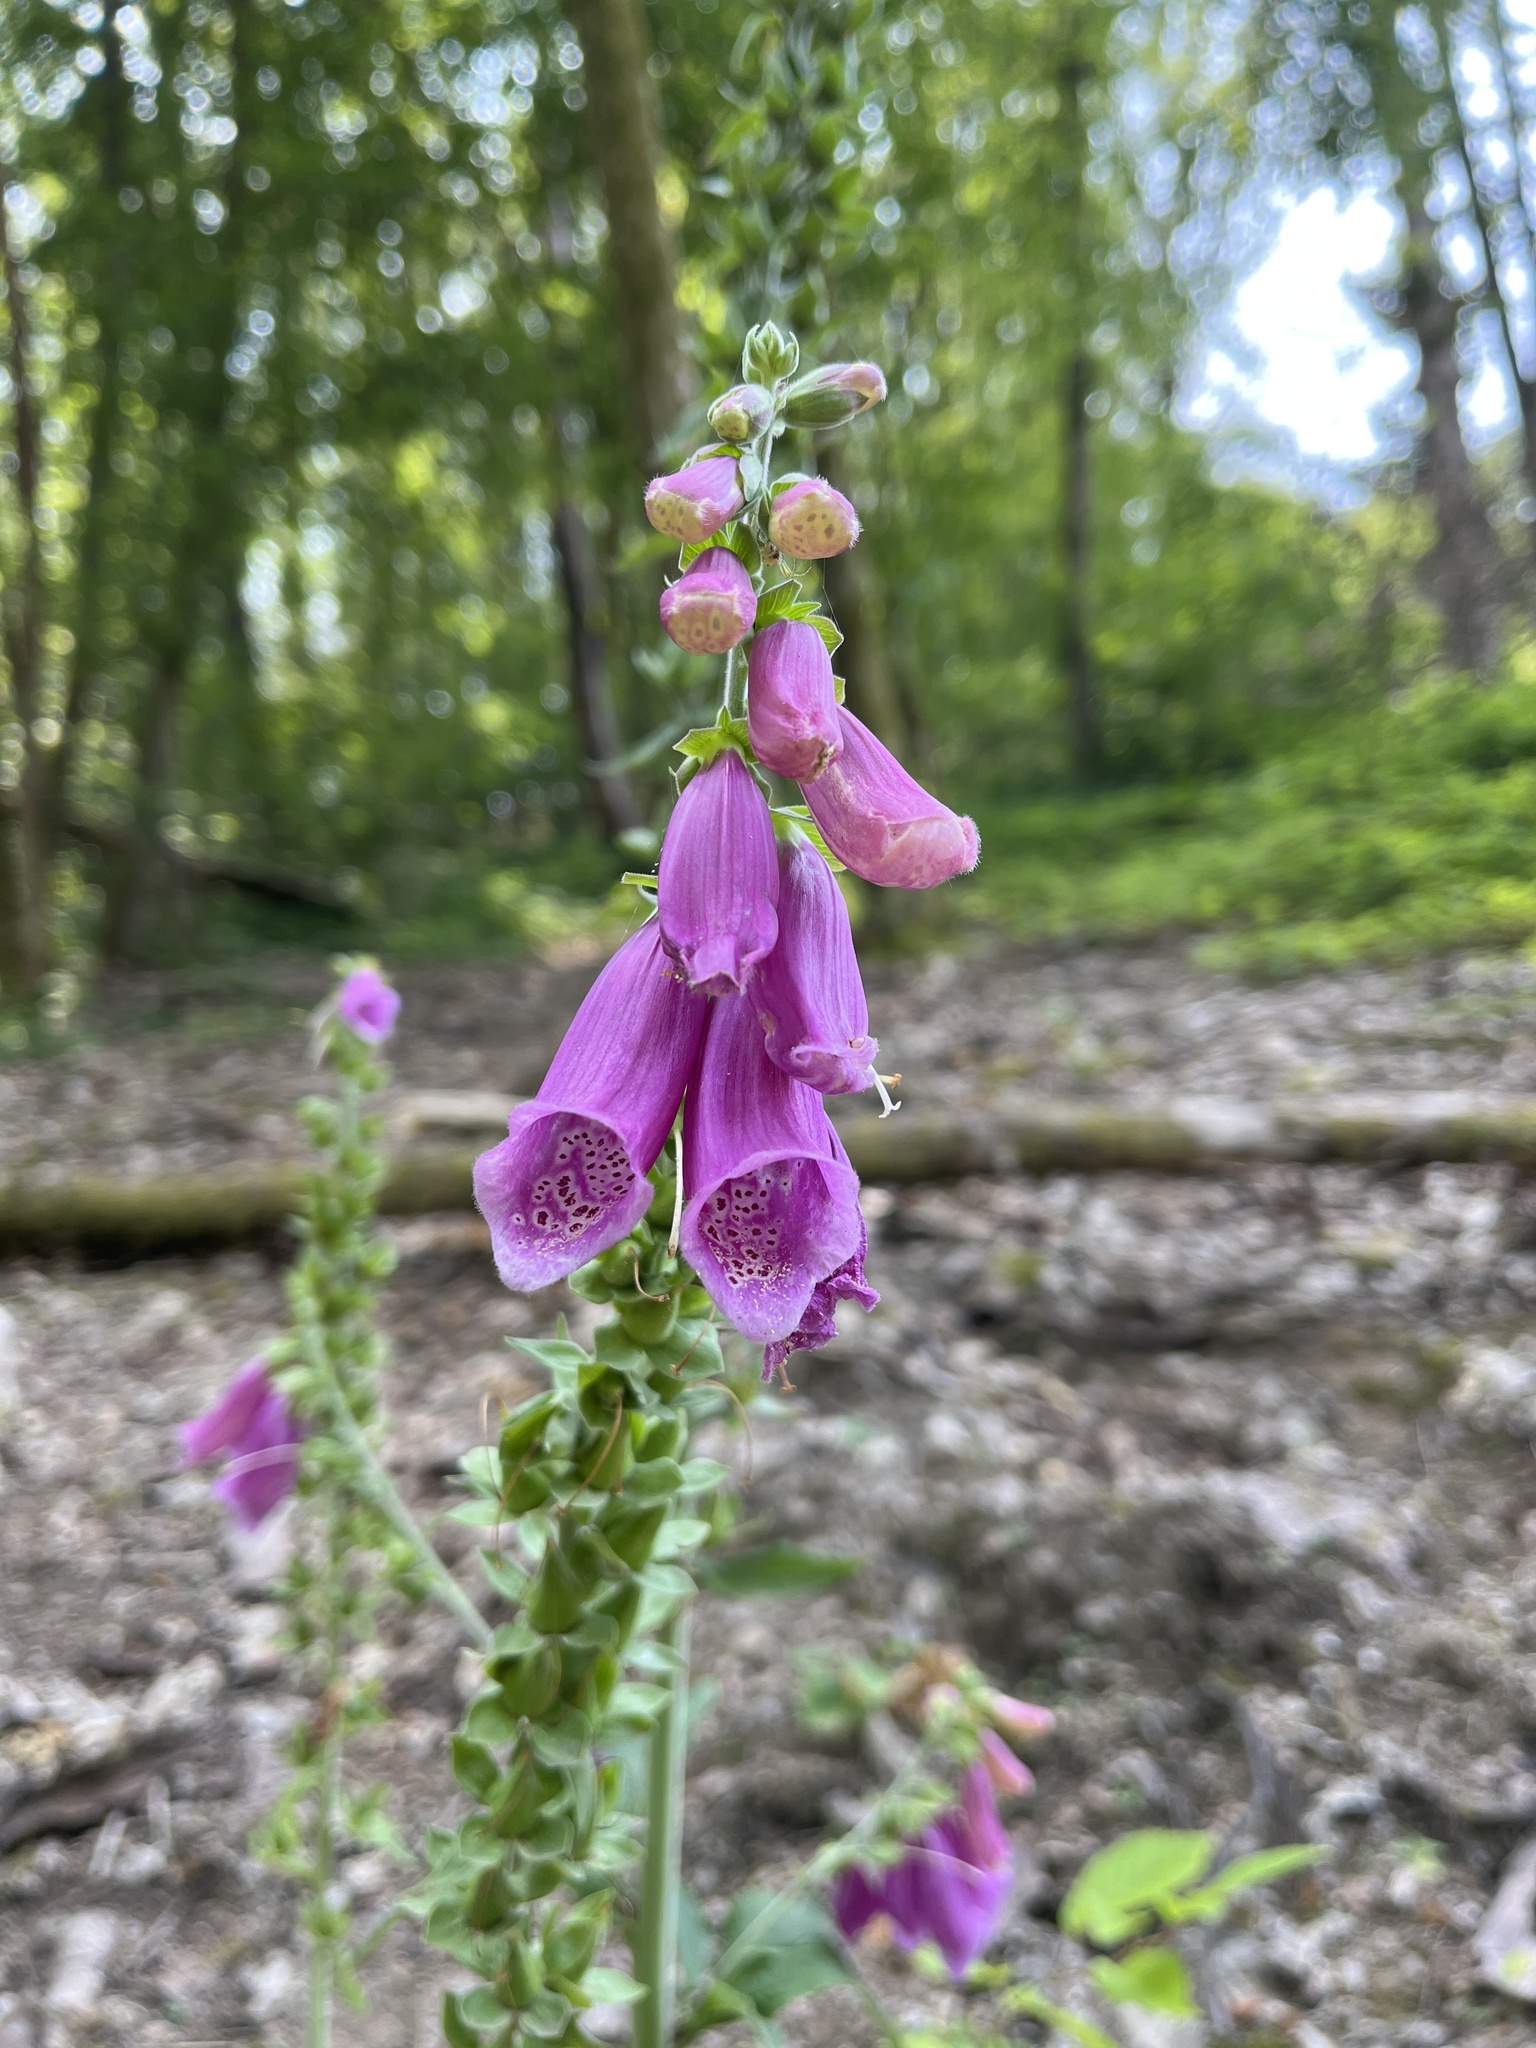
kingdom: Plantae
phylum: Tracheophyta
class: Magnoliopsida
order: Lamiales
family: Plantaginaceae
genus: Digitalis
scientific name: Digitalis purpurea
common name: Foxglove
